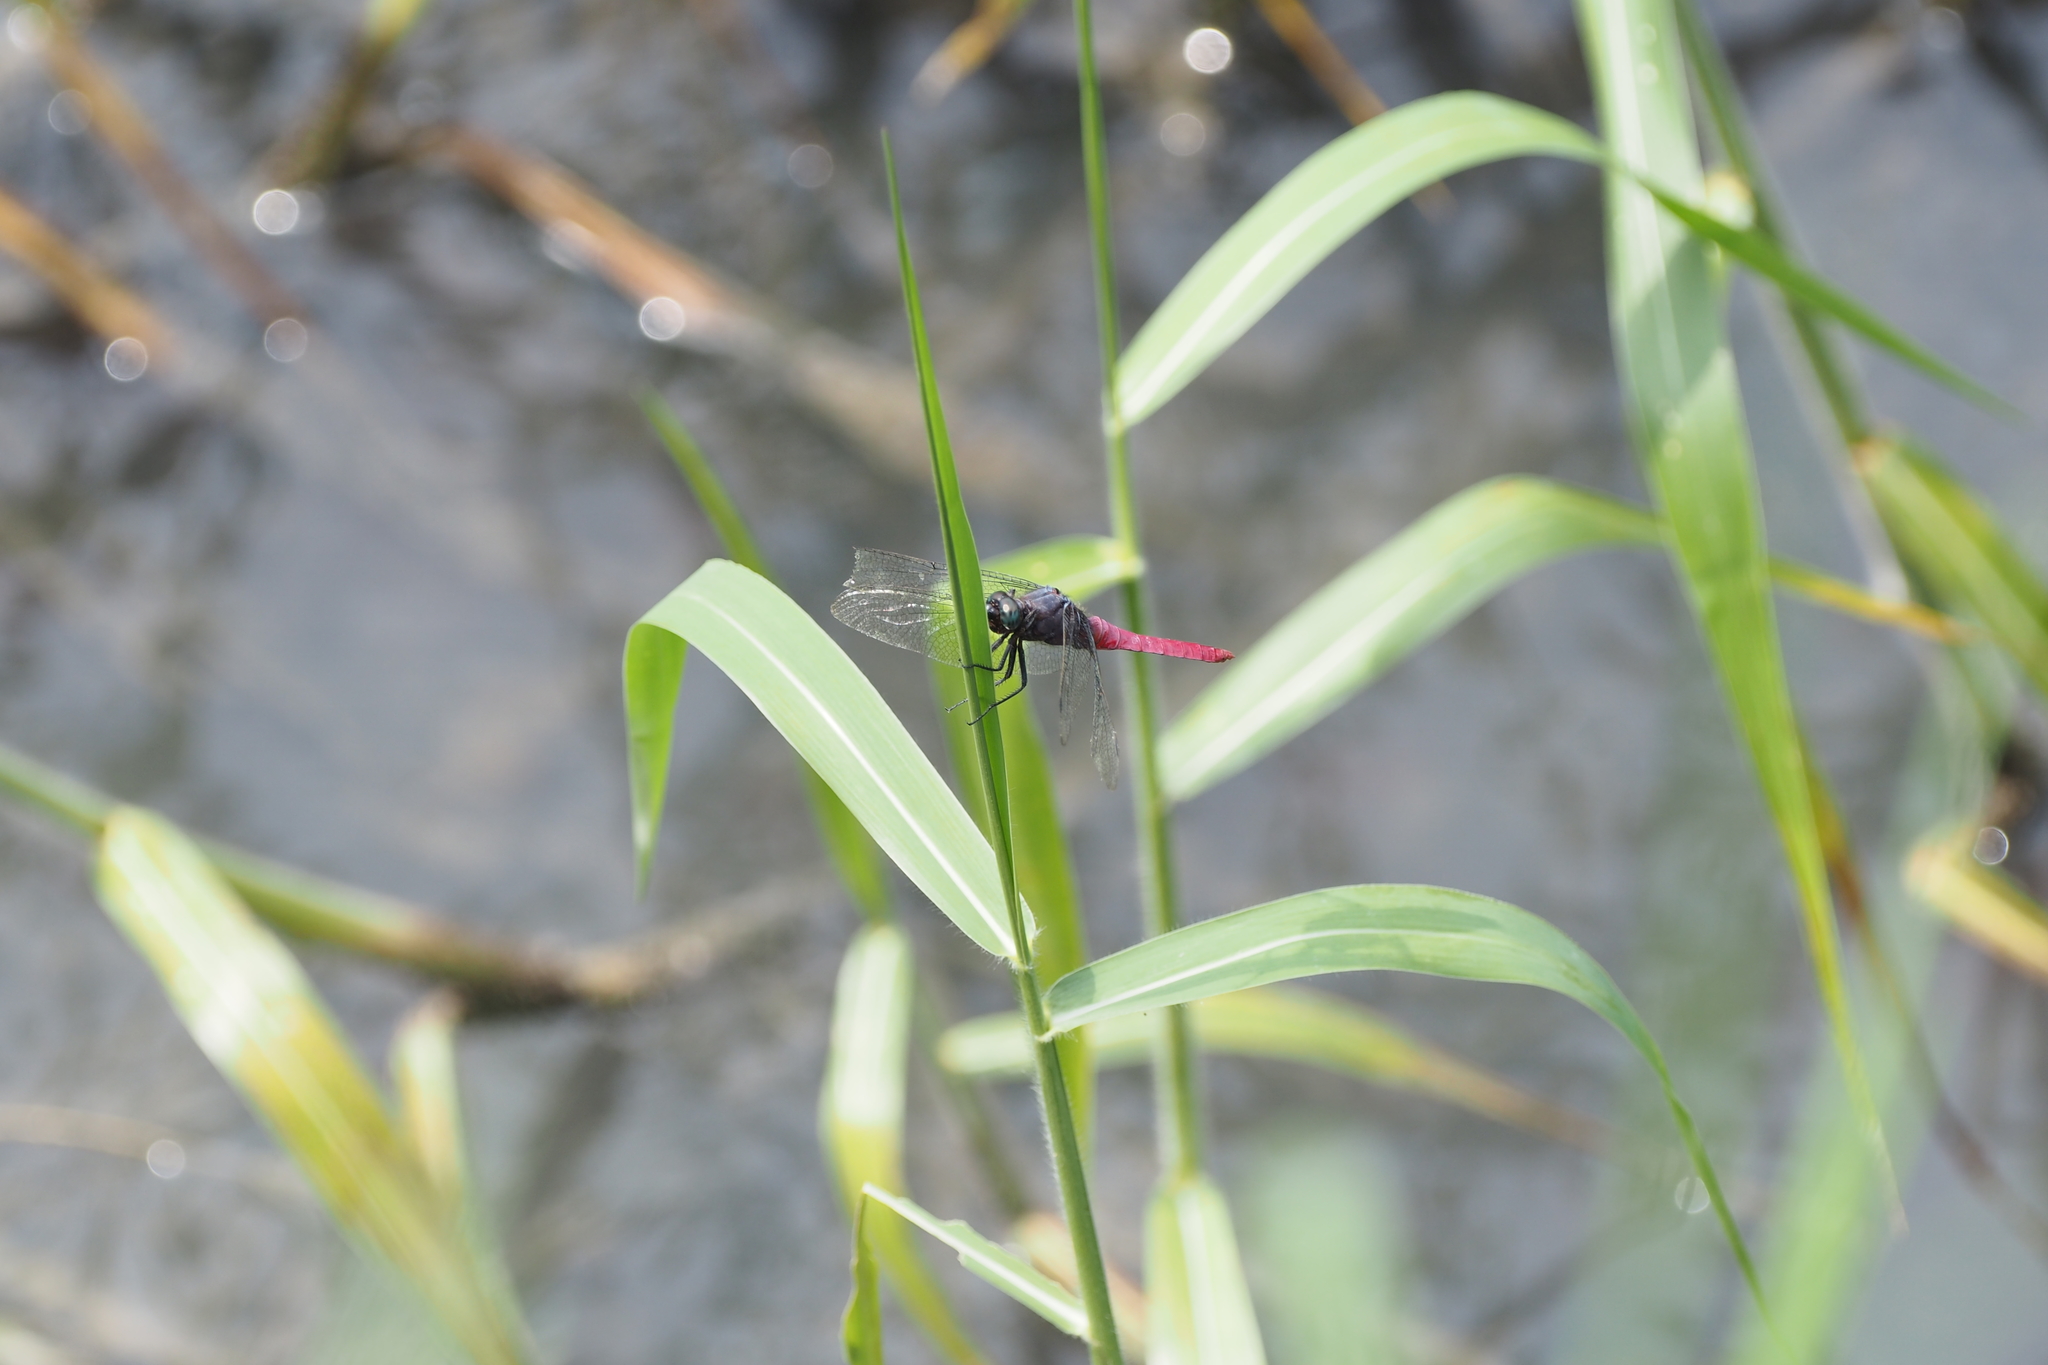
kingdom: Animalia
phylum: Arthropoda
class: Insecta
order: Odonata
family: Libellulidae
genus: Orthetrum
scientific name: Orthetrum pruinosum
